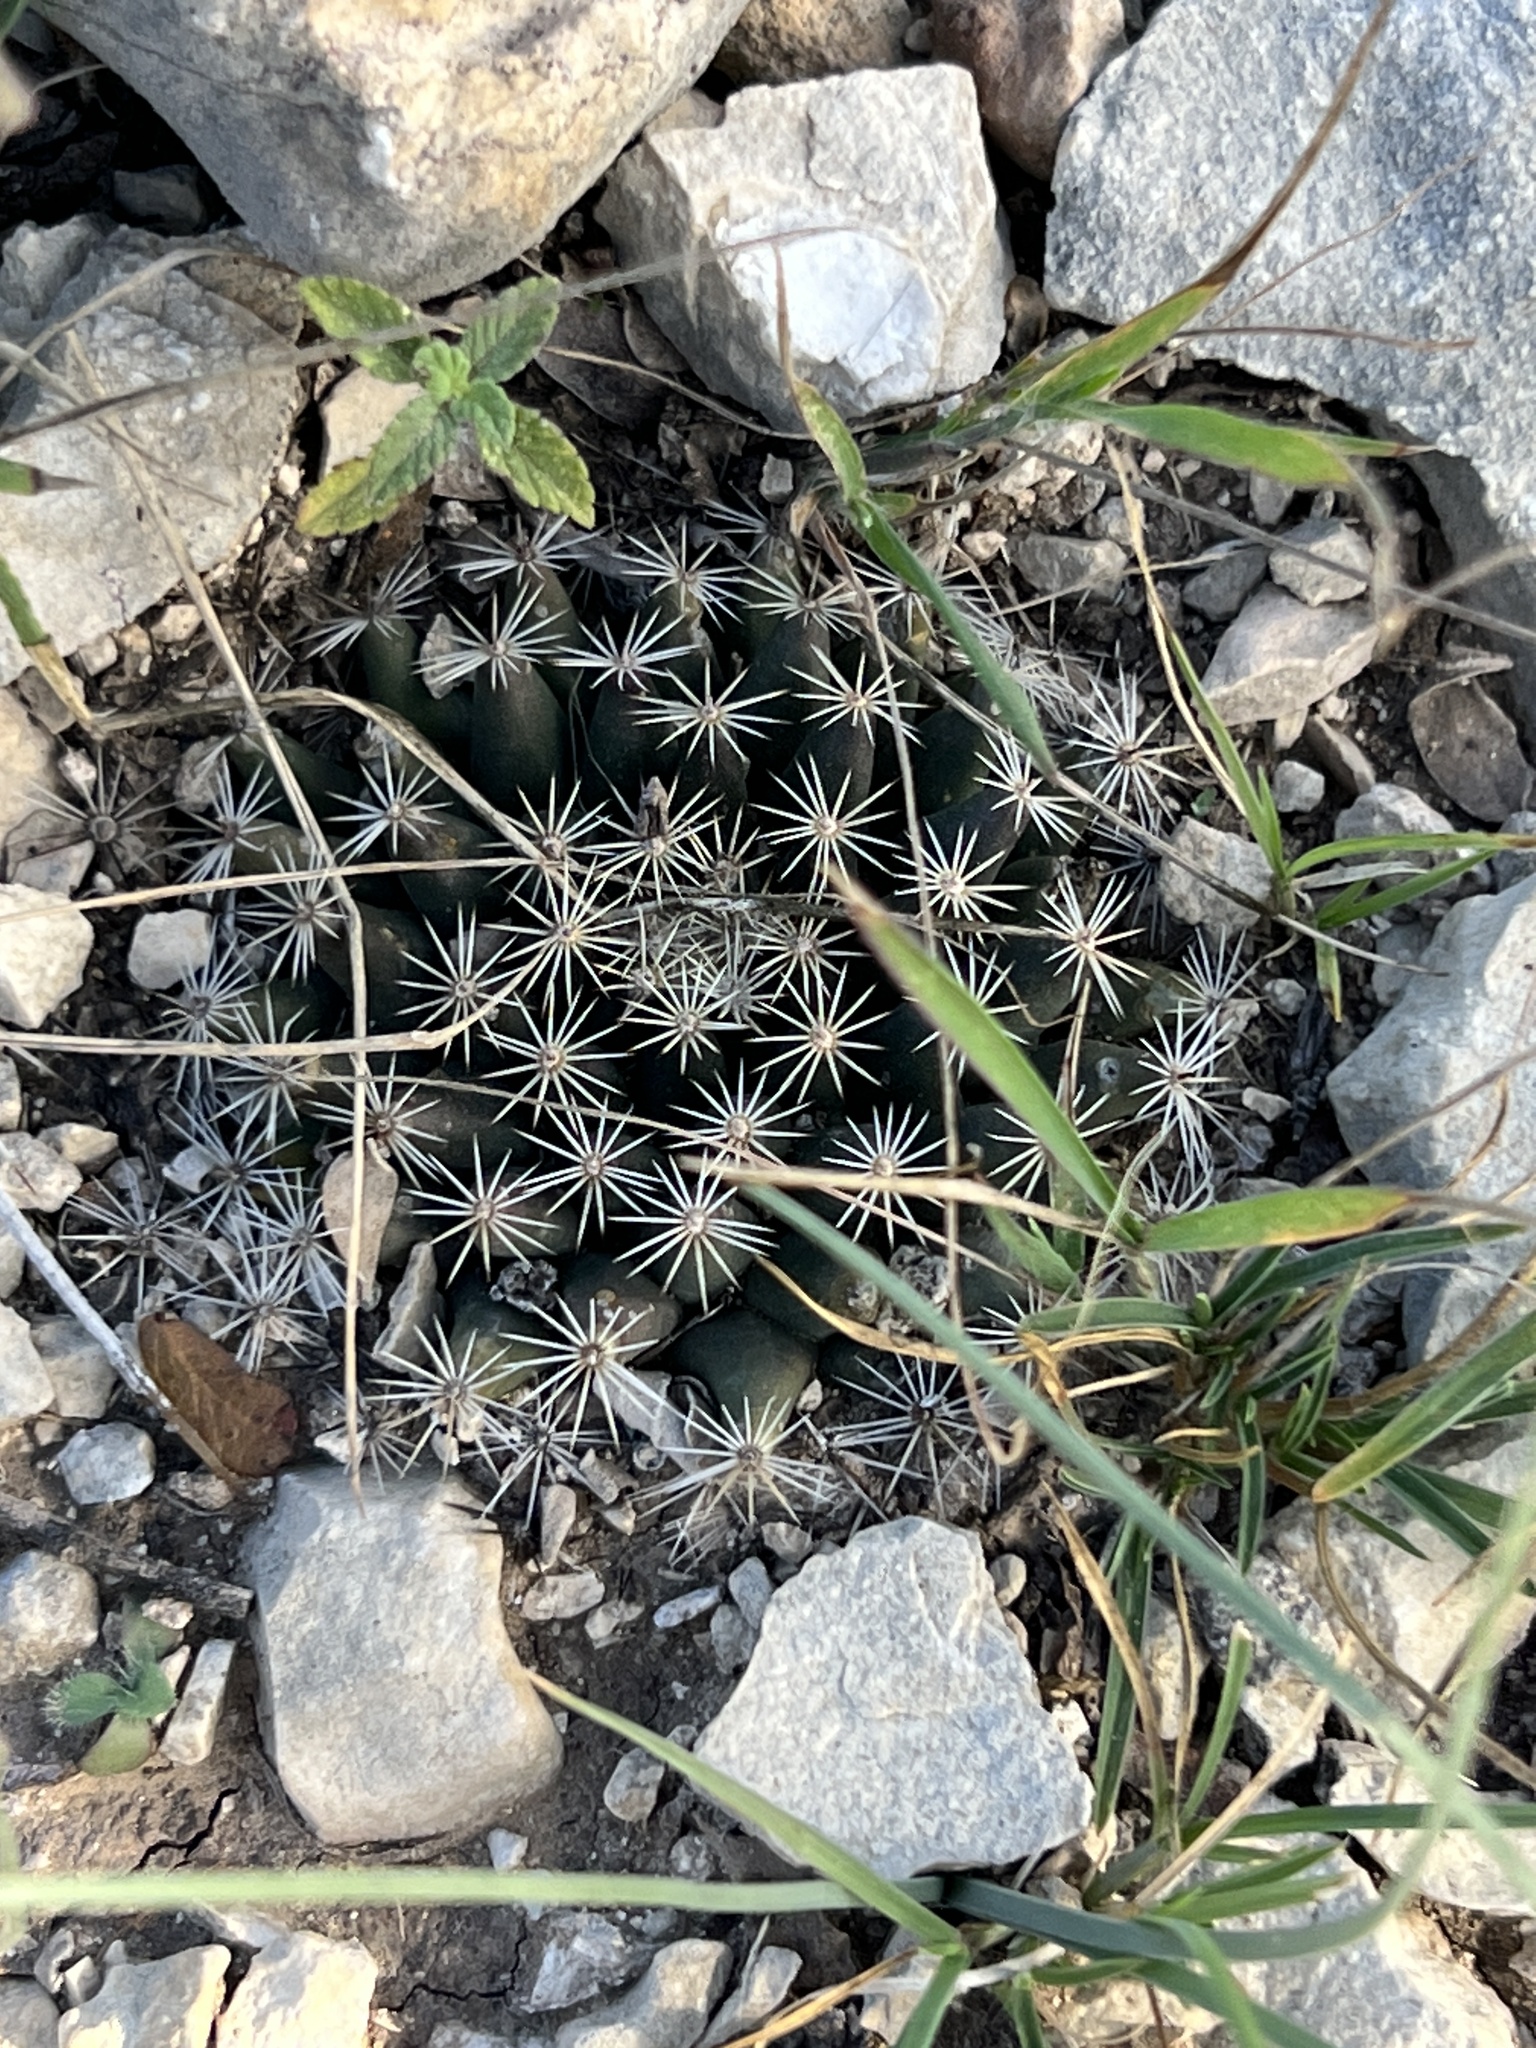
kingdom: Plantae
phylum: Tracheophyta
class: Magnoliopsida
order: Caryophyllales
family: Cactaceae
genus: Mammillaria
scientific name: Mammillaria heyderi
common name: Little nipple cactus
